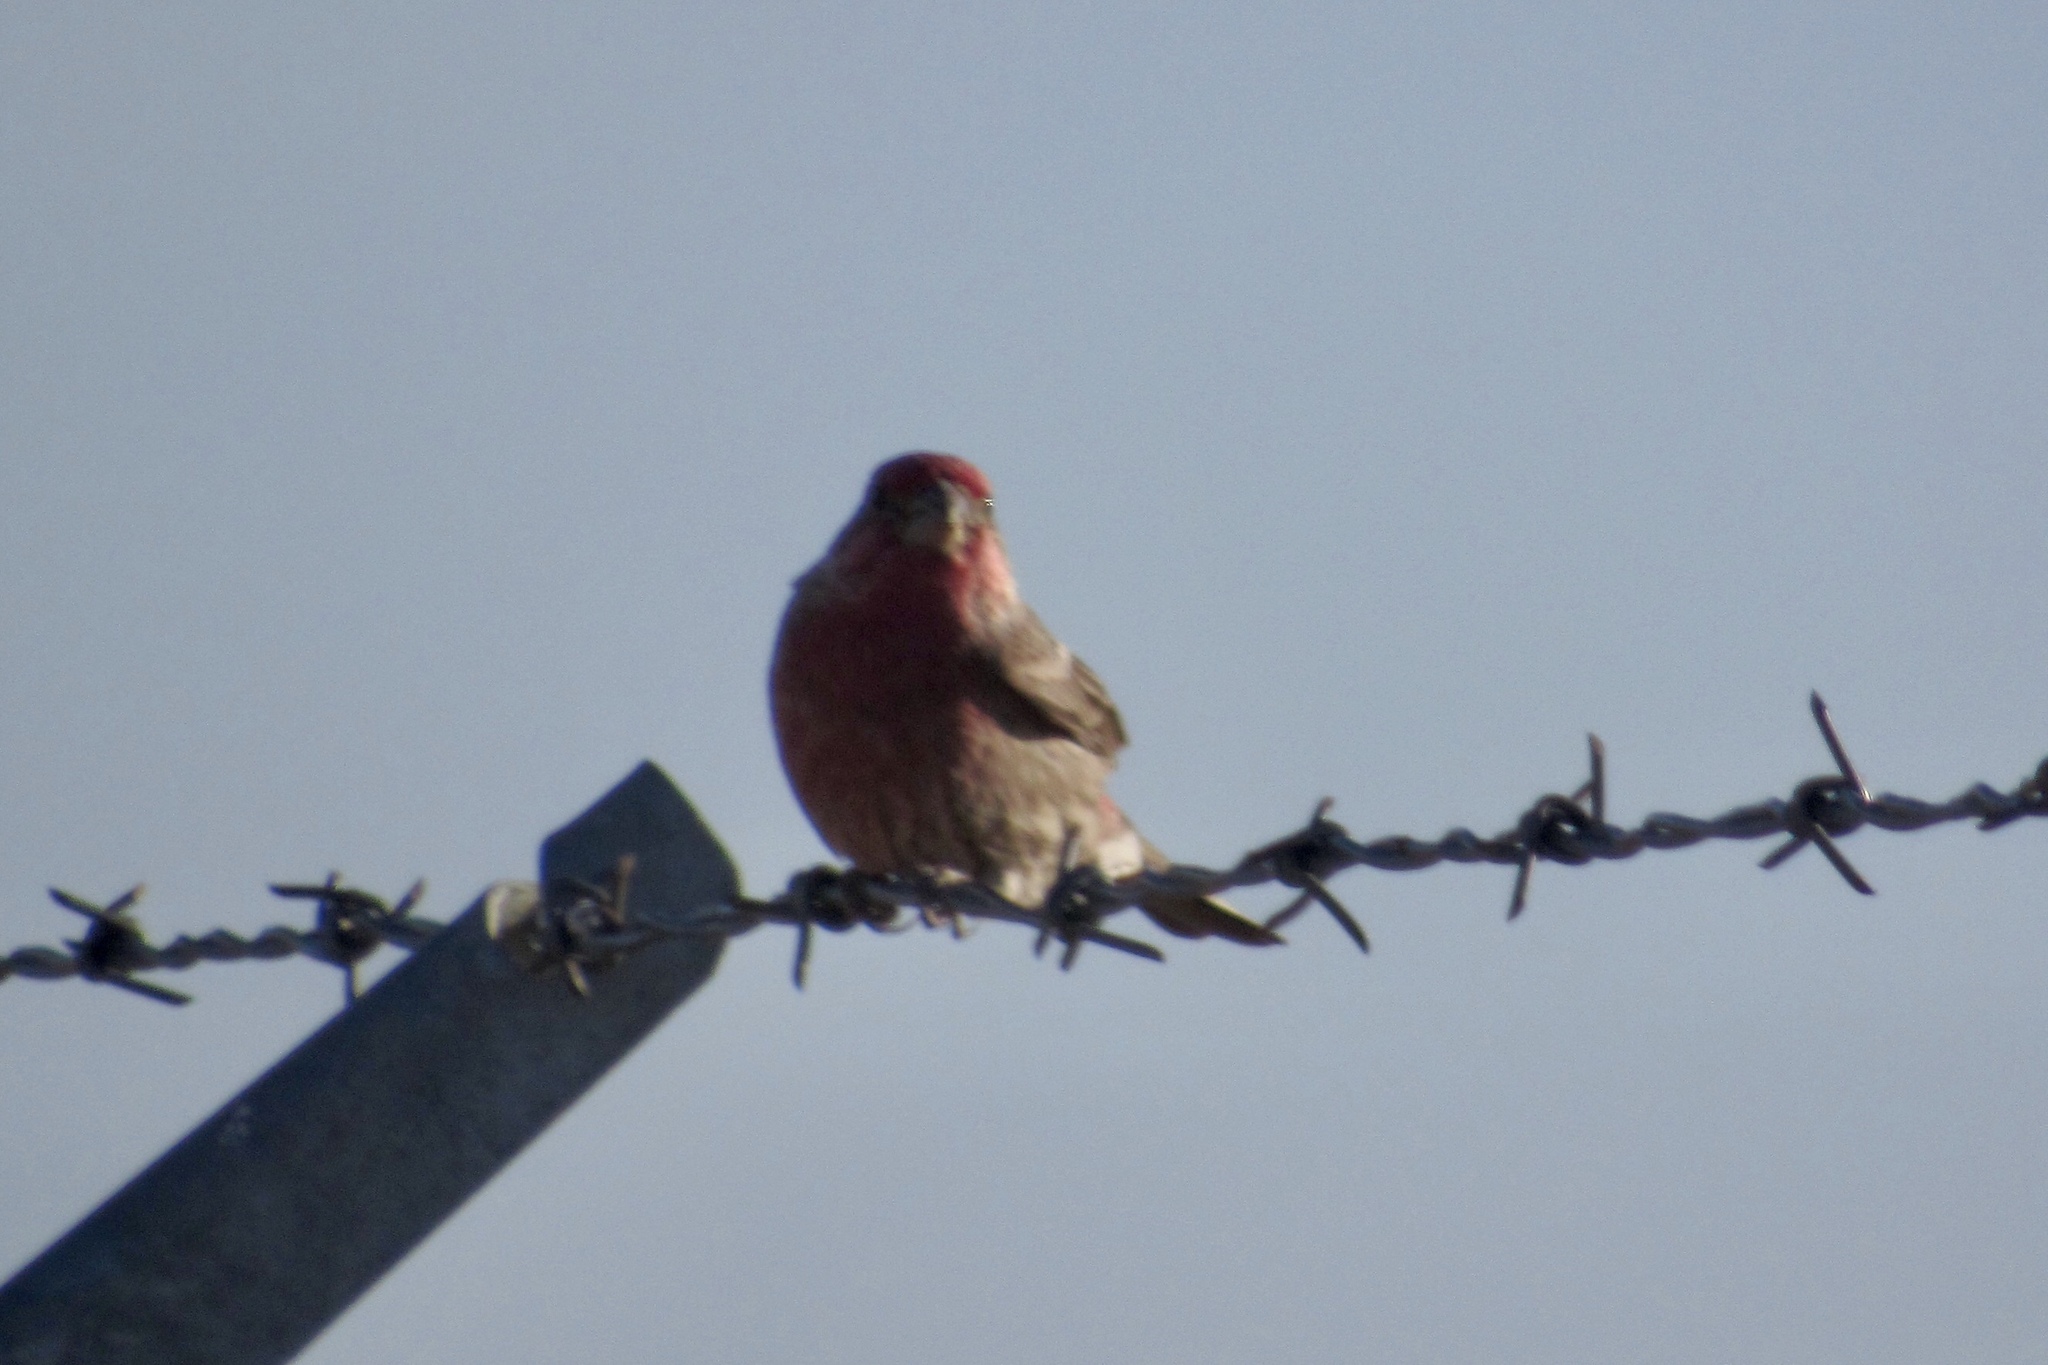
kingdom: Animalia
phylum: Chordata
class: Aves
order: Passeriformes
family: Fringillidae
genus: Haemorhous
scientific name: Haemorhous mexicanus
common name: House finch
